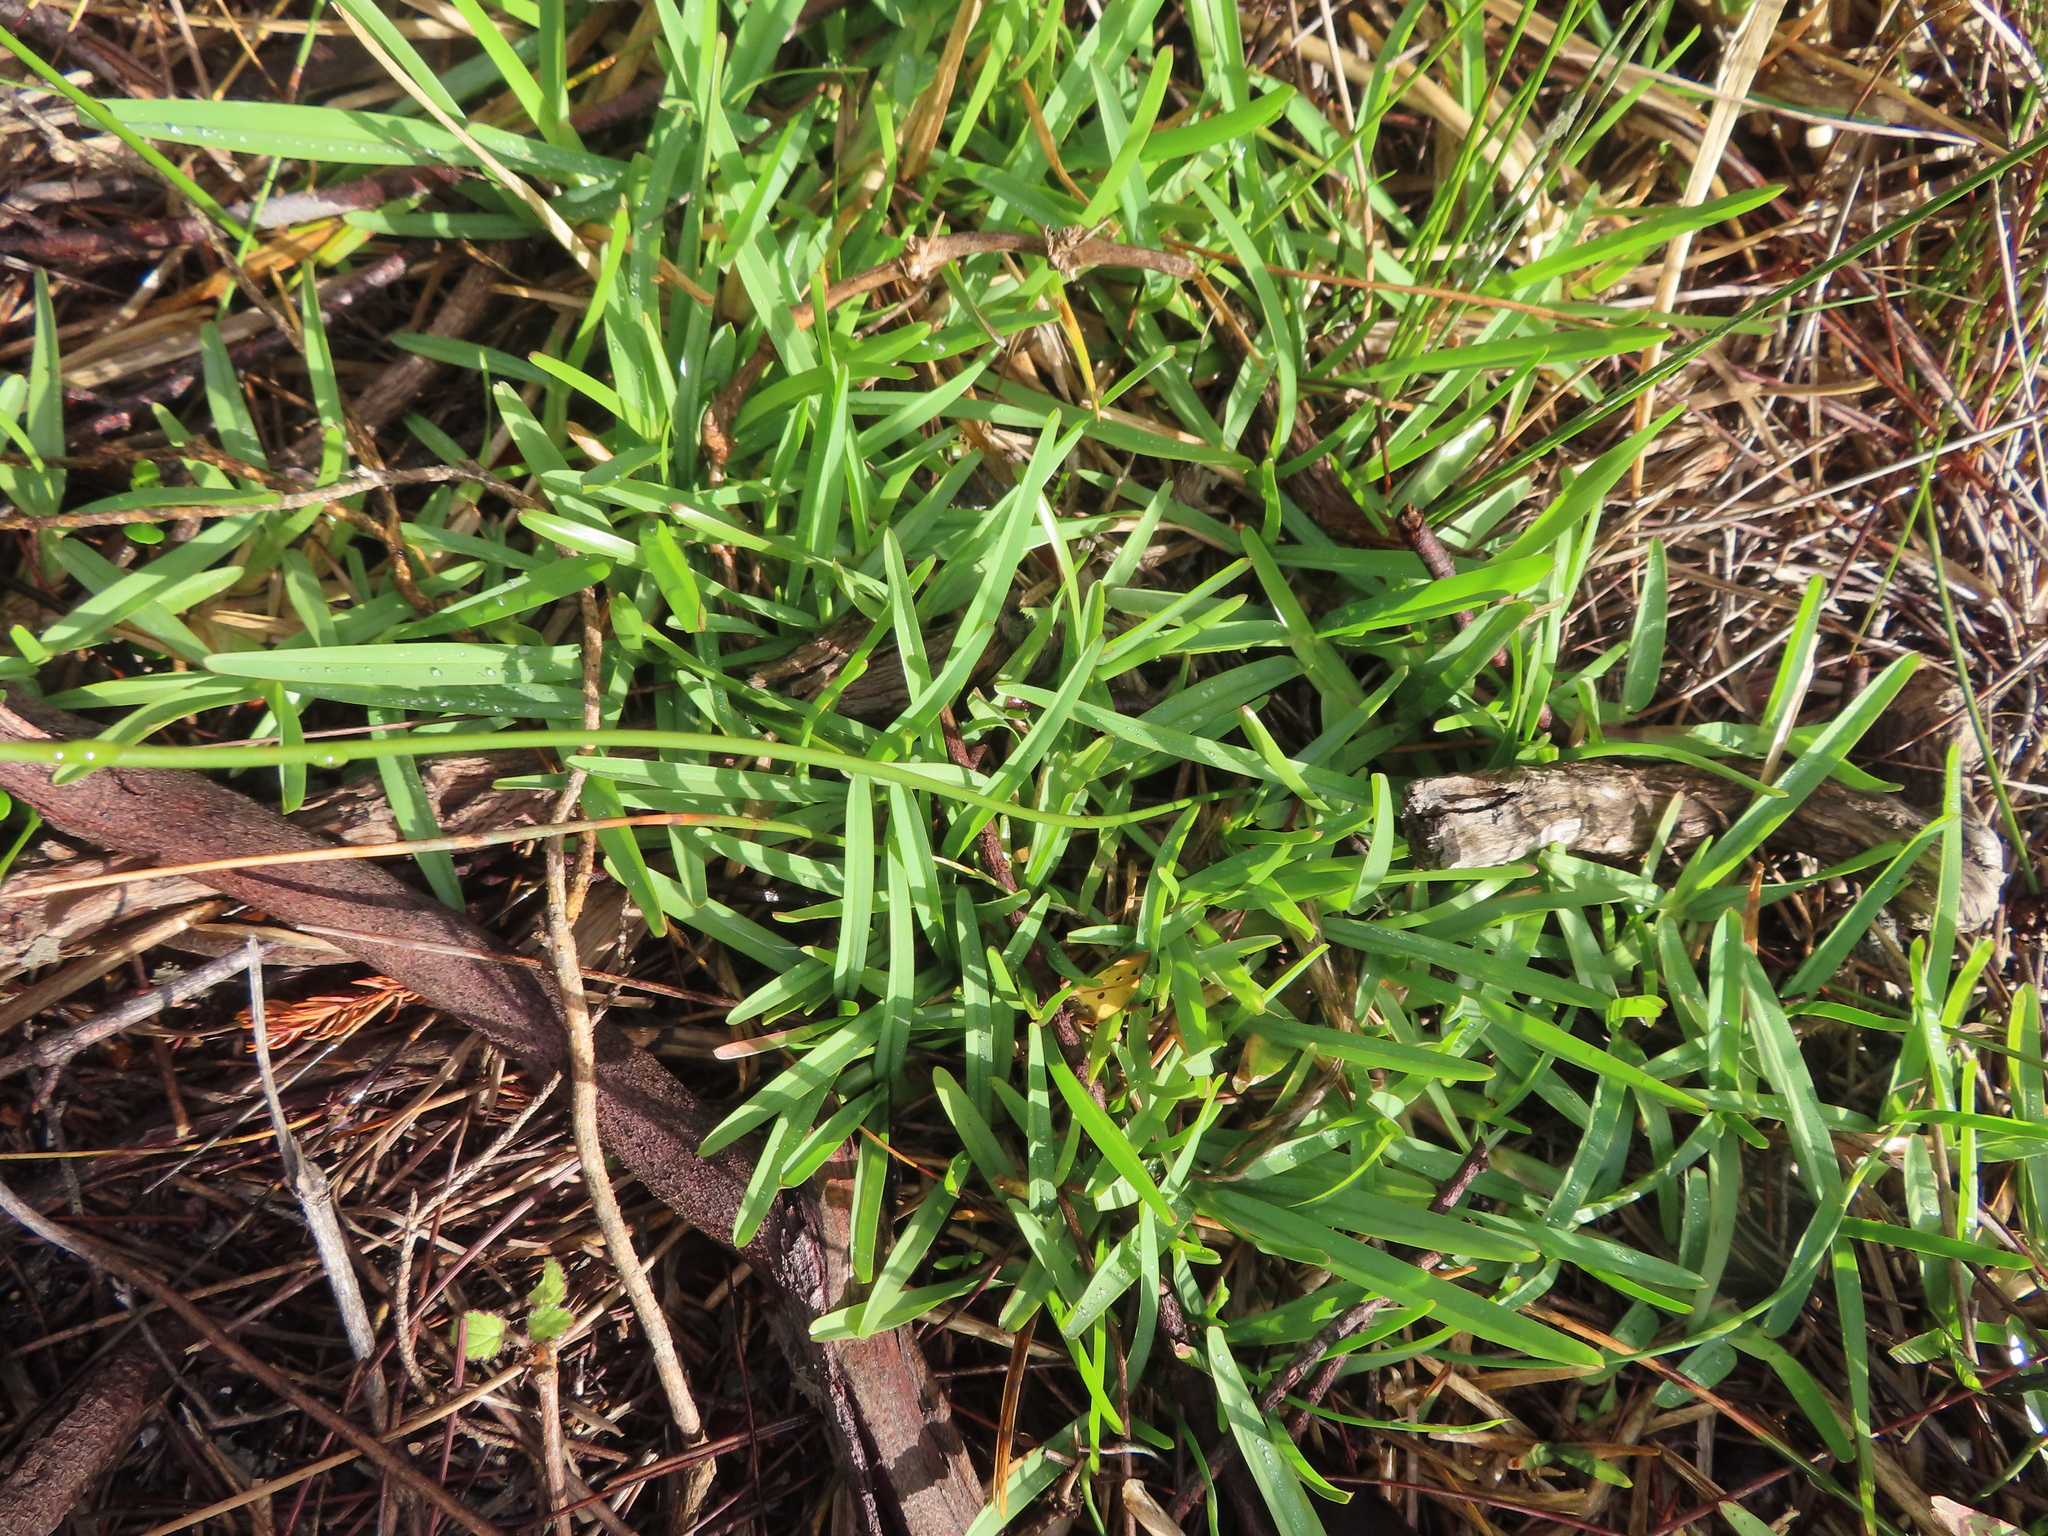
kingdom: Plantae
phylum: Tracheophyta
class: Liliopsida
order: Poales
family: Poaceae
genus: Cenchrus
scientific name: Cenchrus clandestinus
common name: Kikuyugrass
